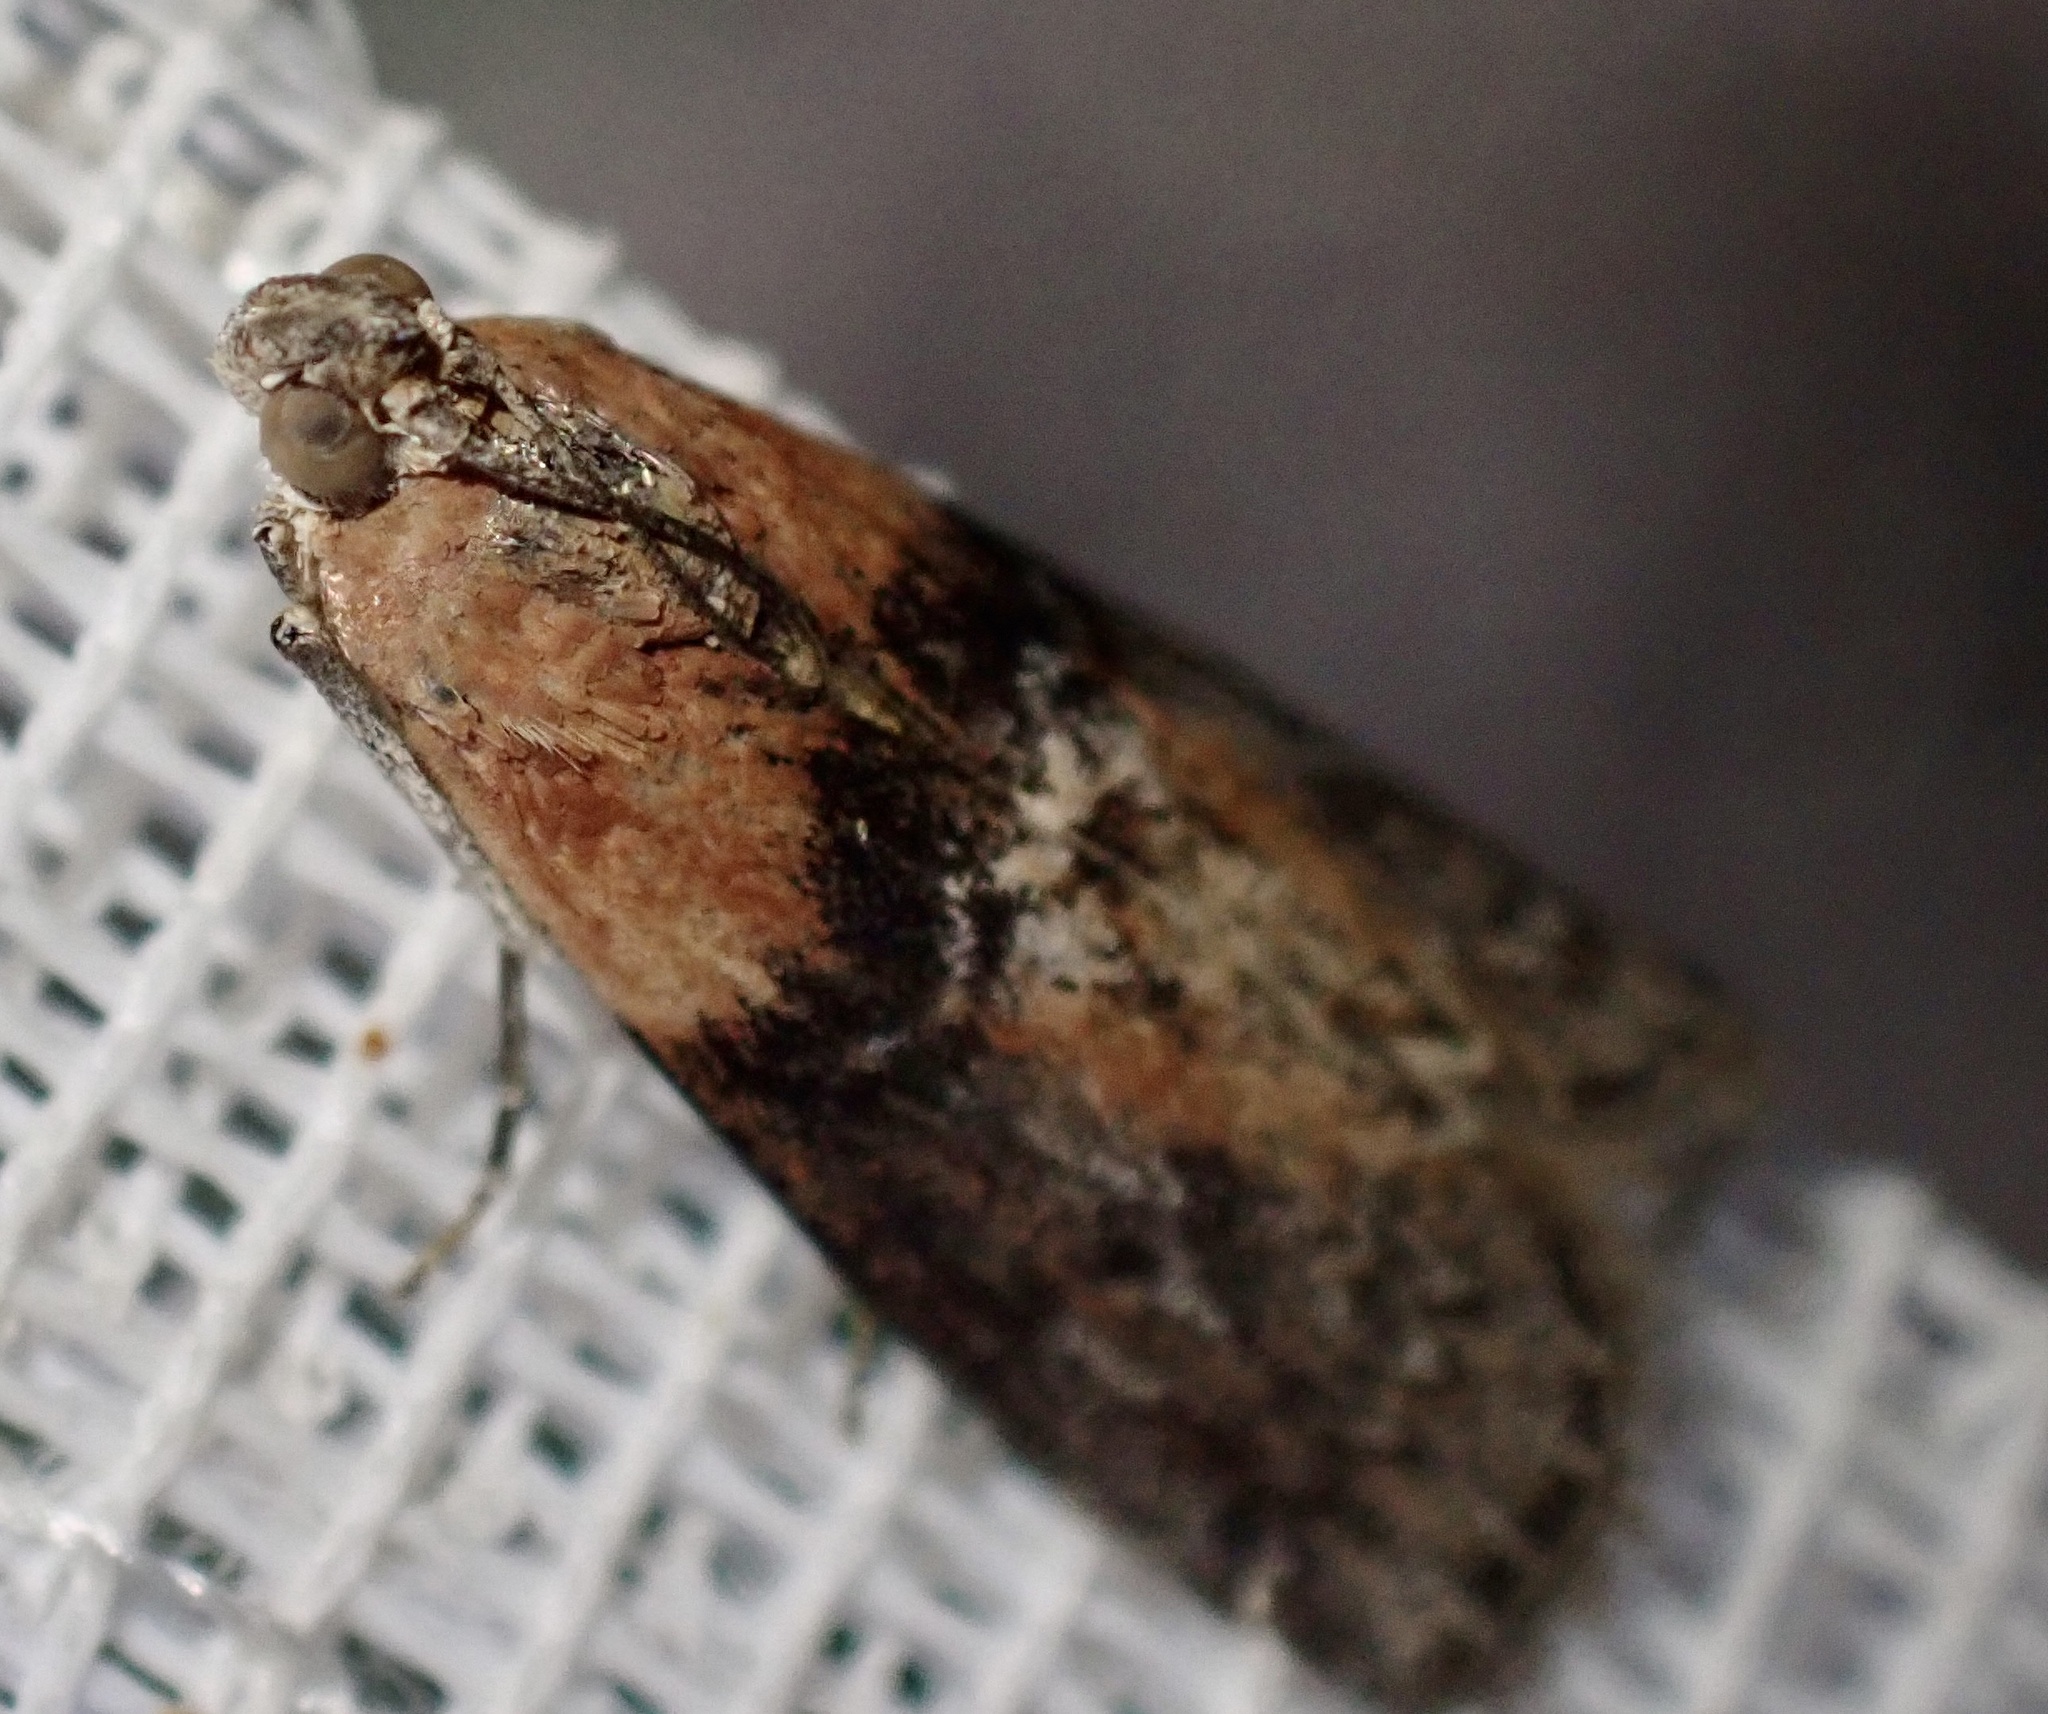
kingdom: Animalia
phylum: Arthropoda
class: Insecta
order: Lepidoptera
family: Pyralidae
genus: Sciota
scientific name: Sciota adelphella
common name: Willow knot-horn
